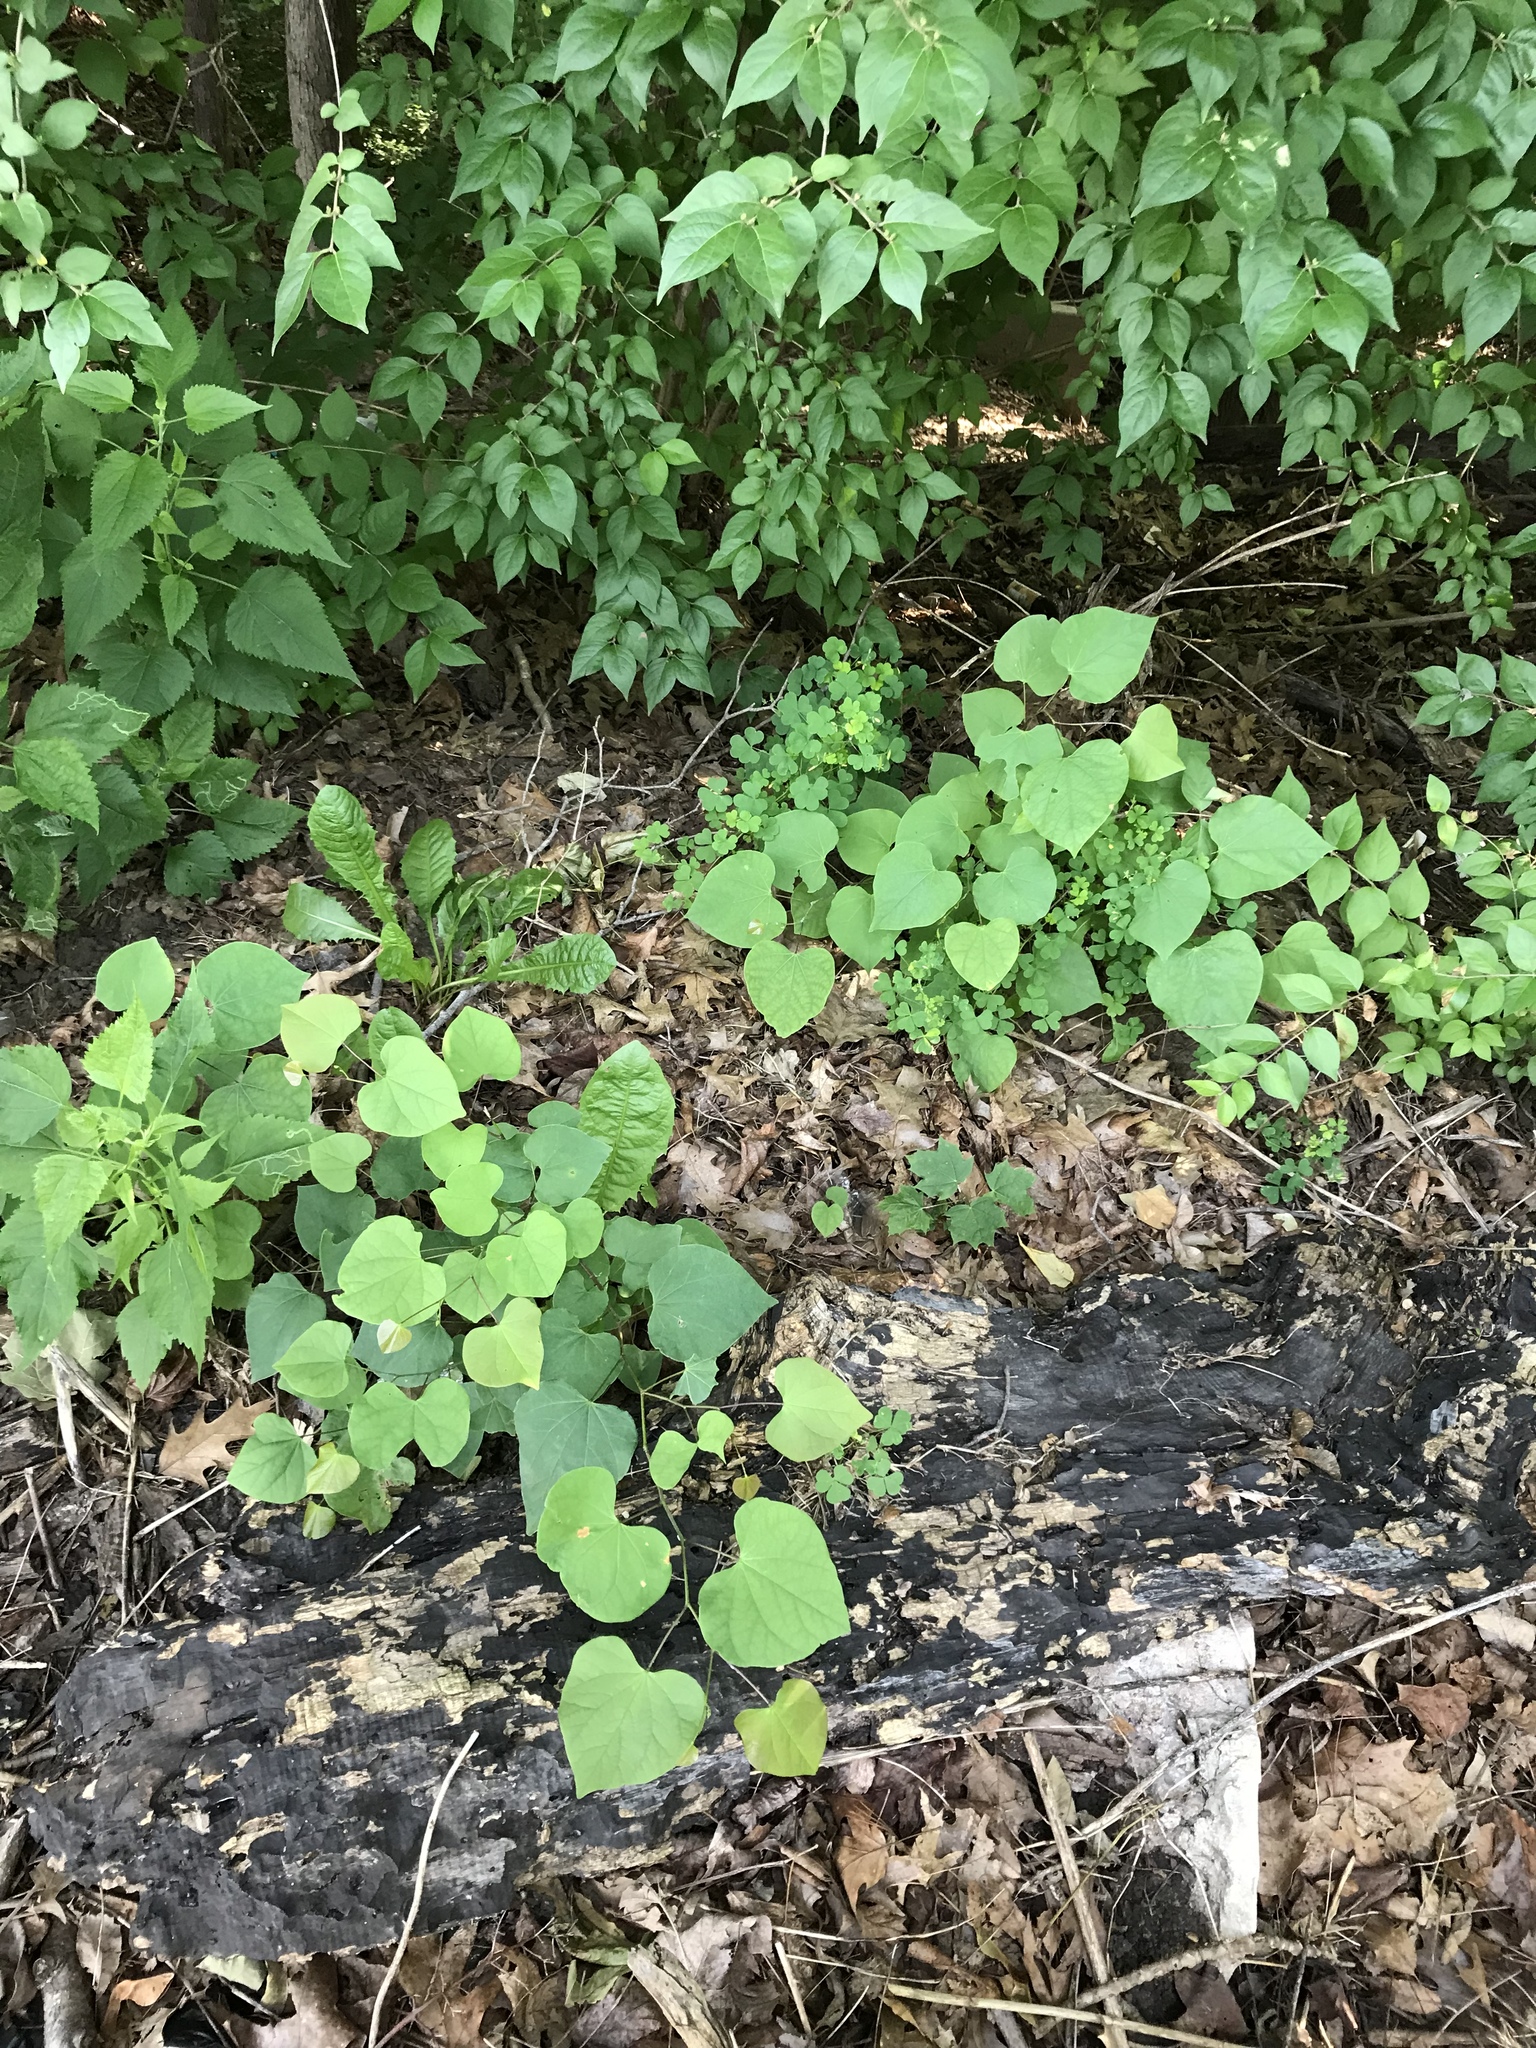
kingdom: Plantae
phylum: Tracheophyta
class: Magnoliopsida
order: Fabales
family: Fabaceae
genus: Cercis
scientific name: Cercis canadensis
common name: Eastern redbud
